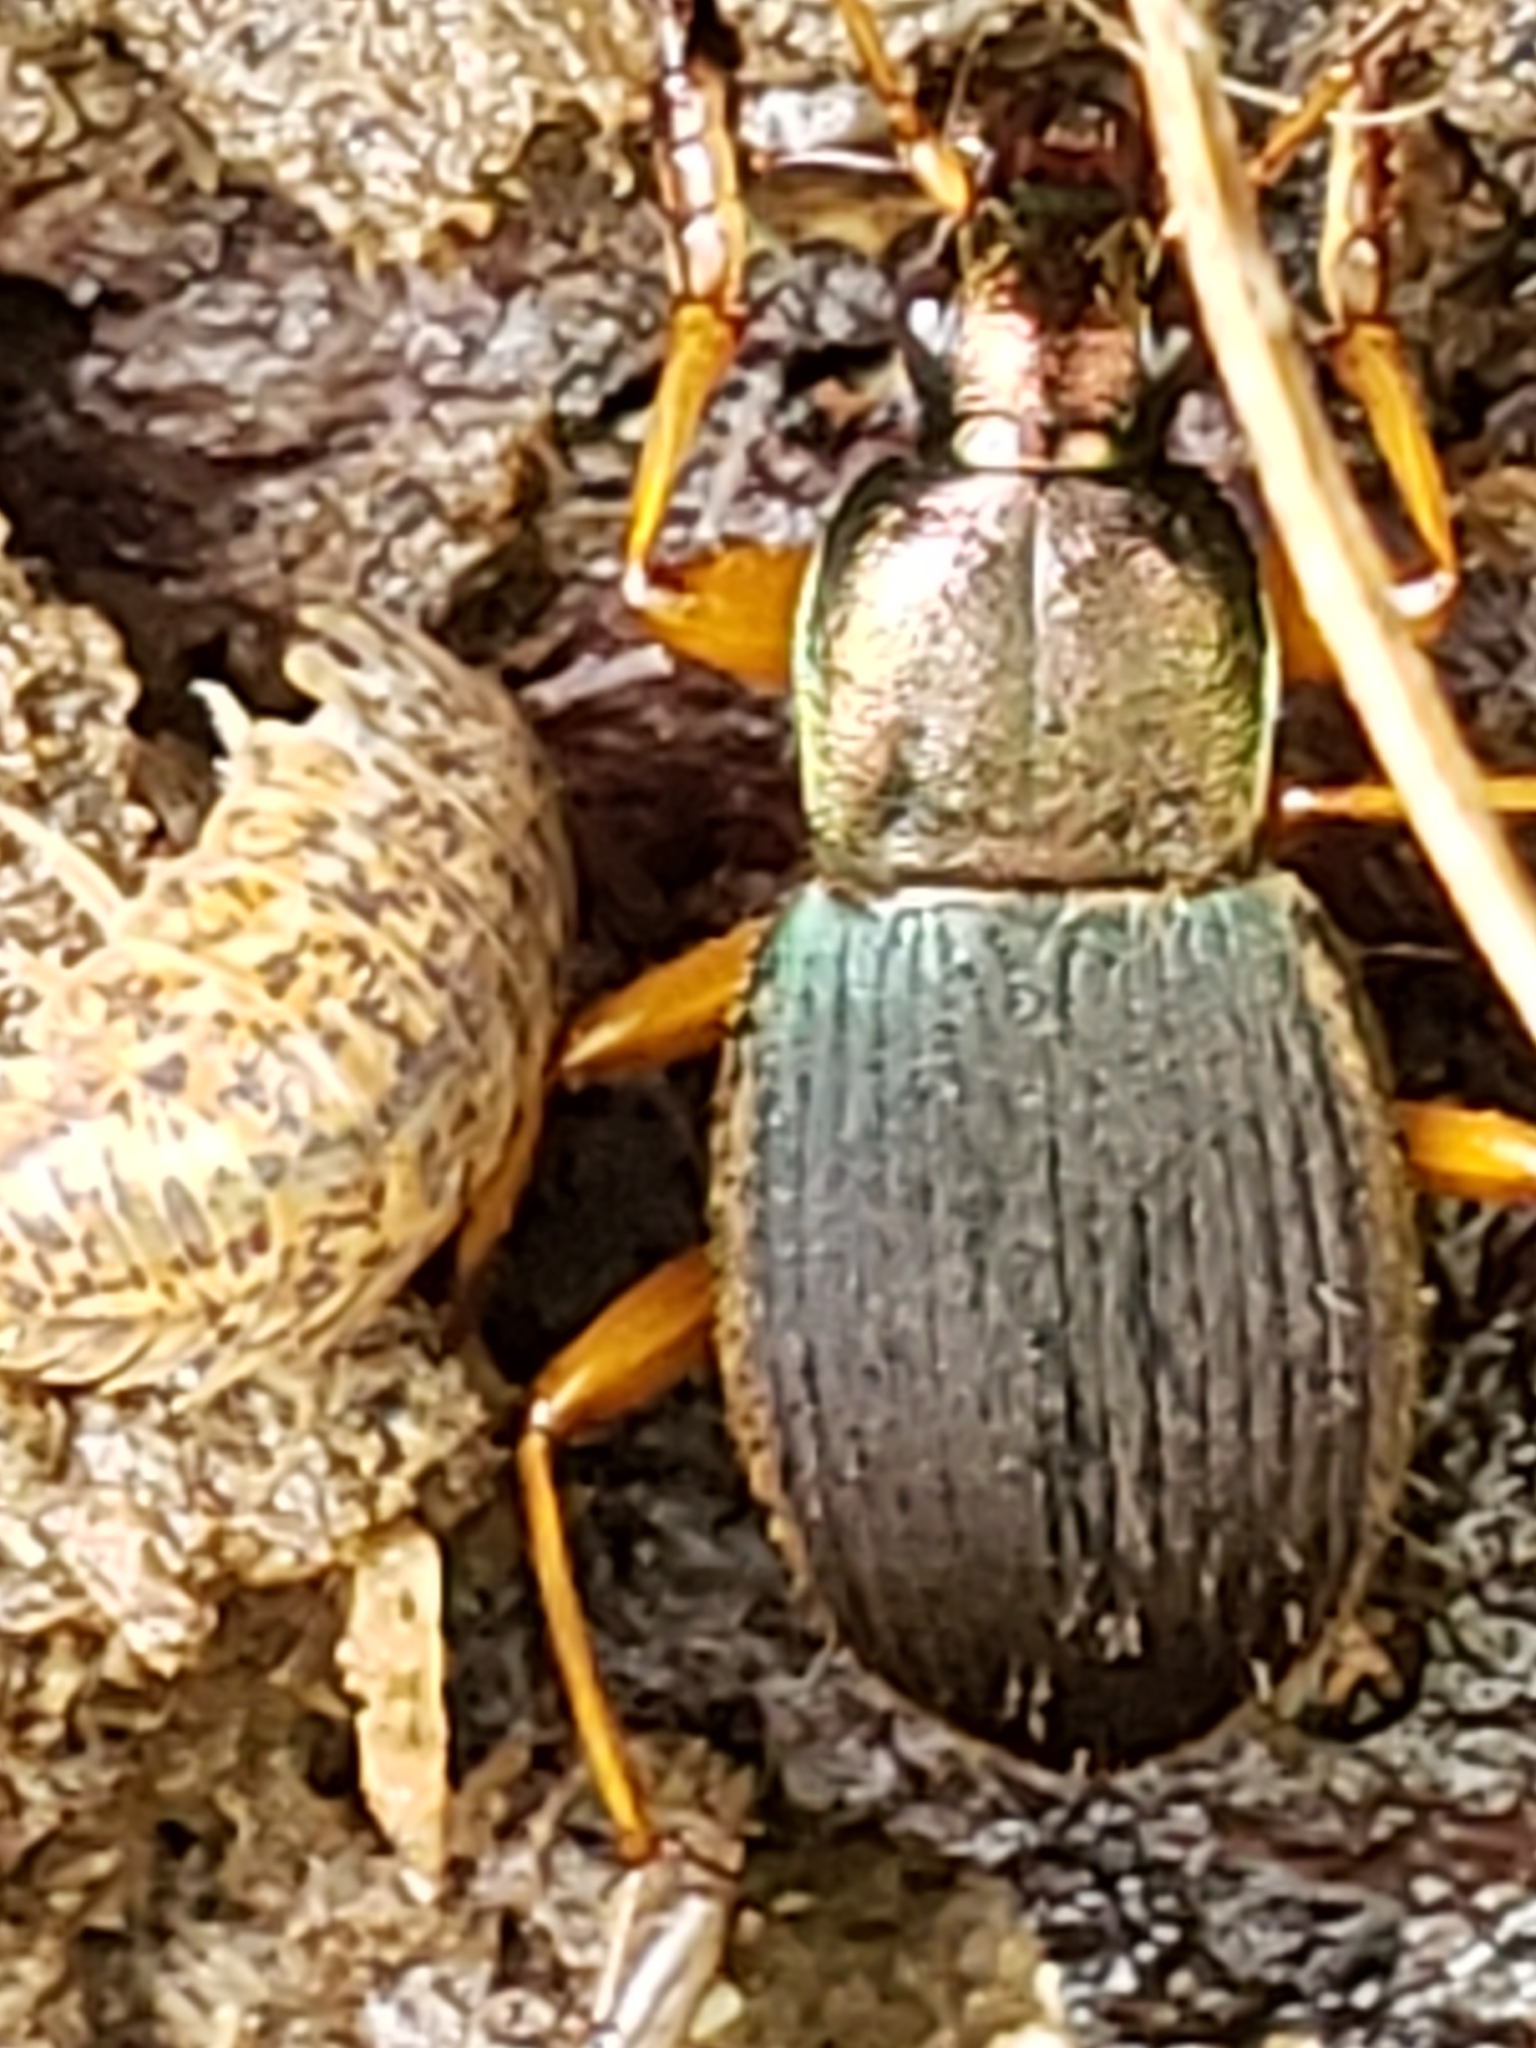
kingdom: Animalia
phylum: Arthropoda
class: Insecta
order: Coleoptera
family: Carabidae
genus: Chlaenius
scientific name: Chlaenius aestivus
